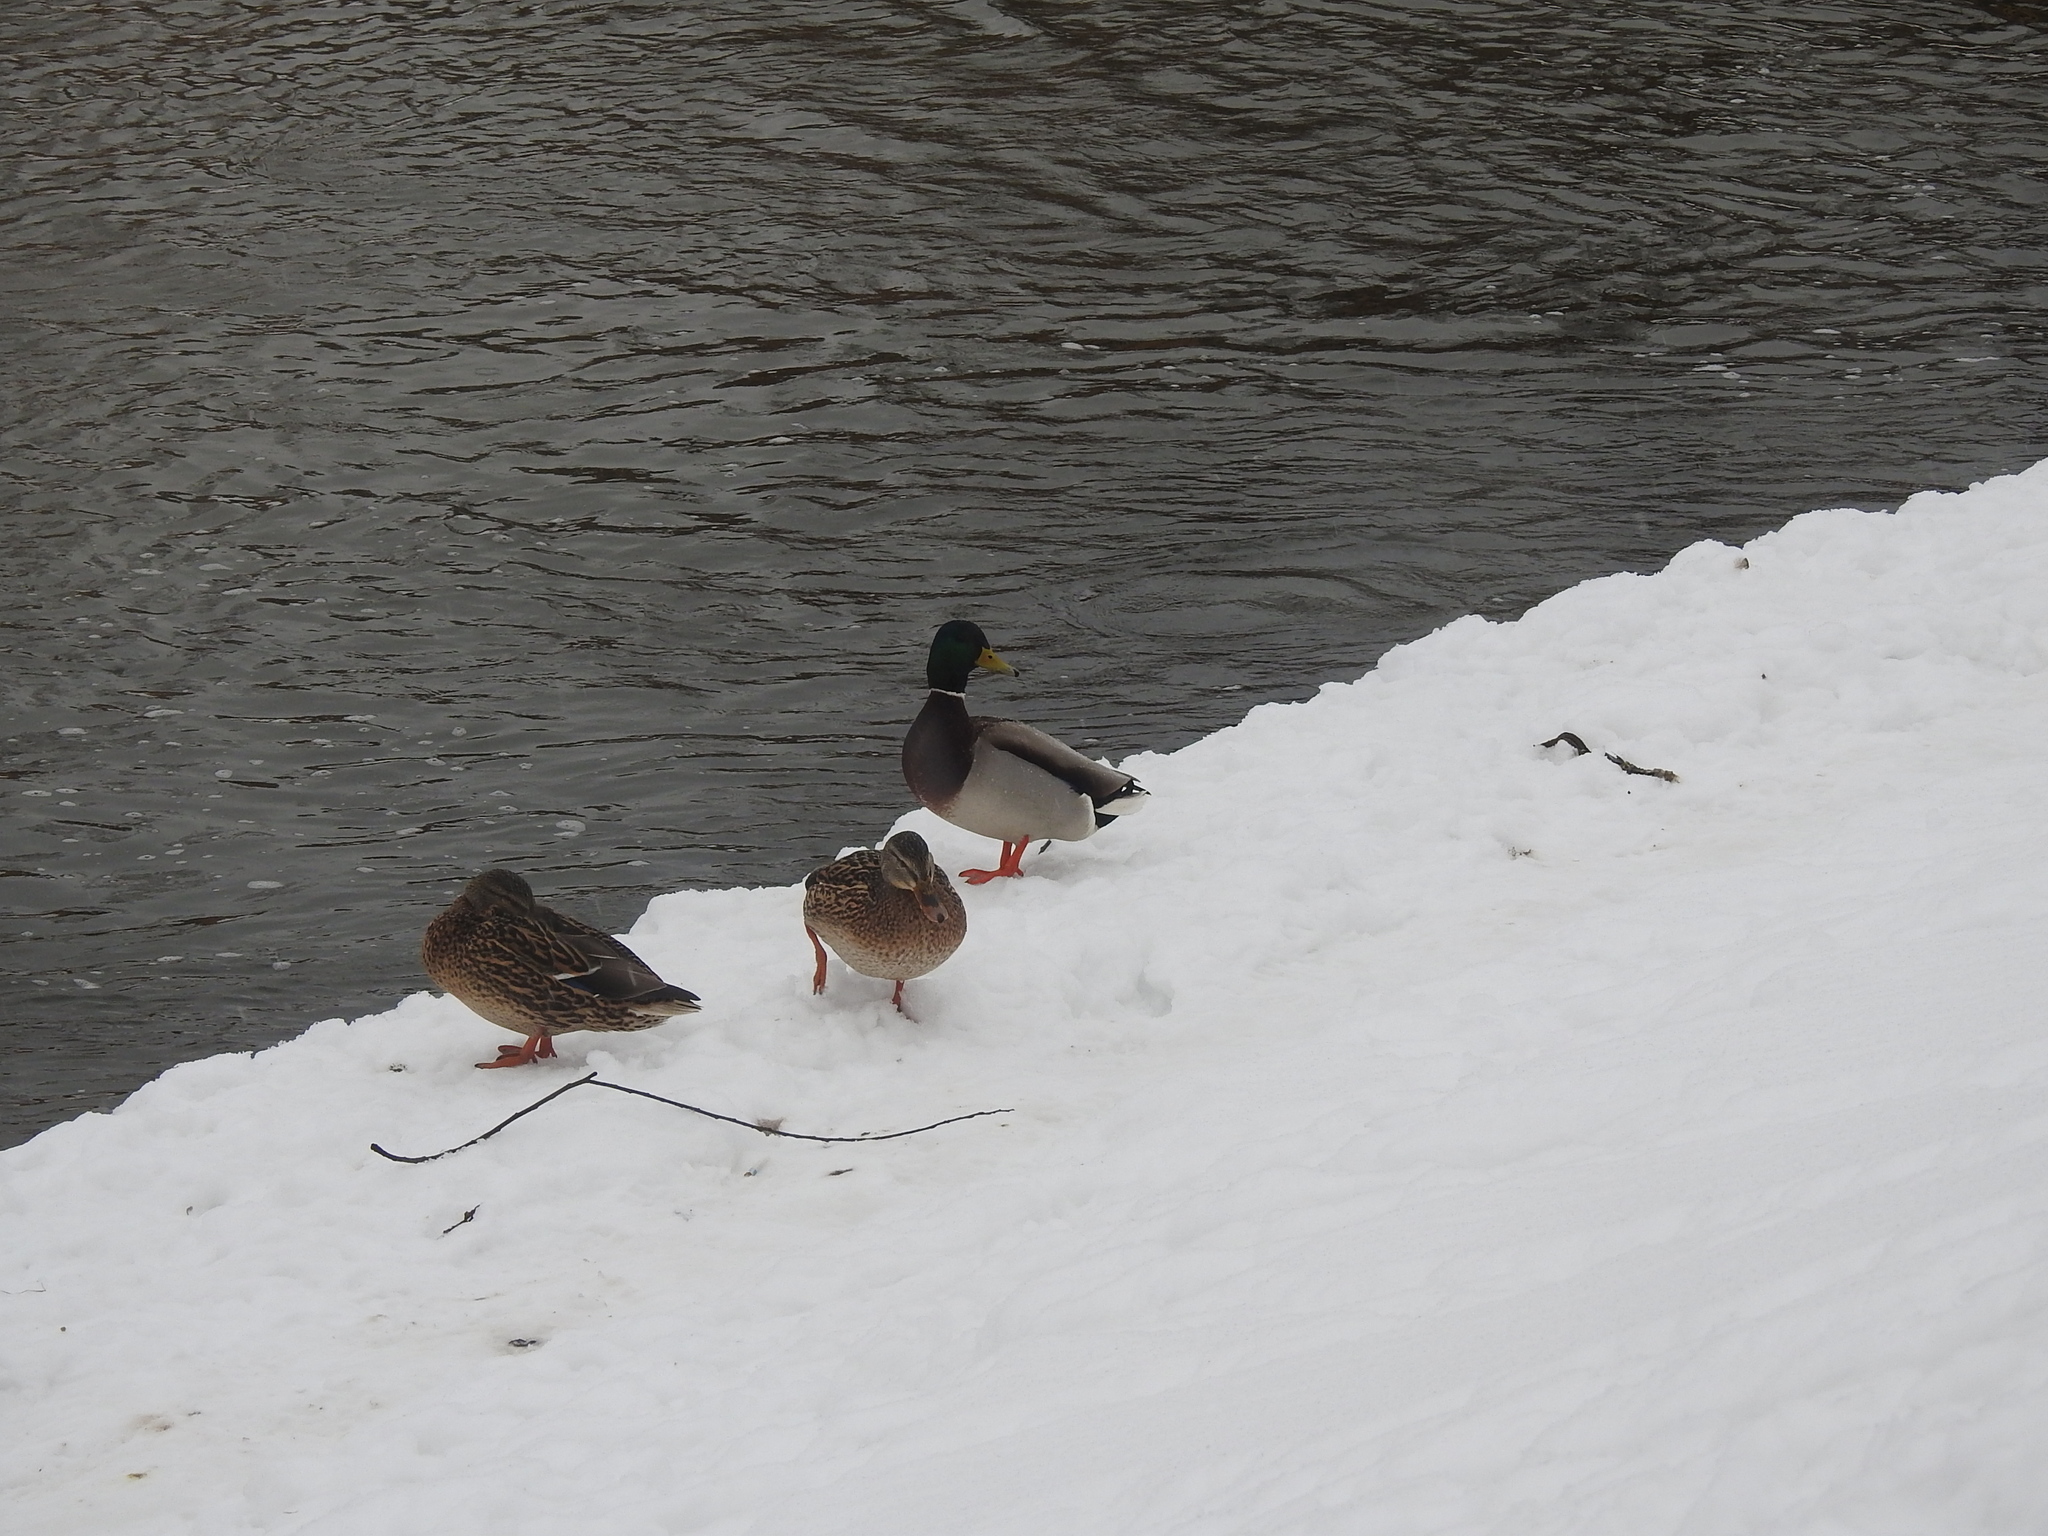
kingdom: Animalia
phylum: Chordata
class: Aves
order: Anseriformes
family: Anatidae
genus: Anas
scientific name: Anas platyrhynchos
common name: Mallard
